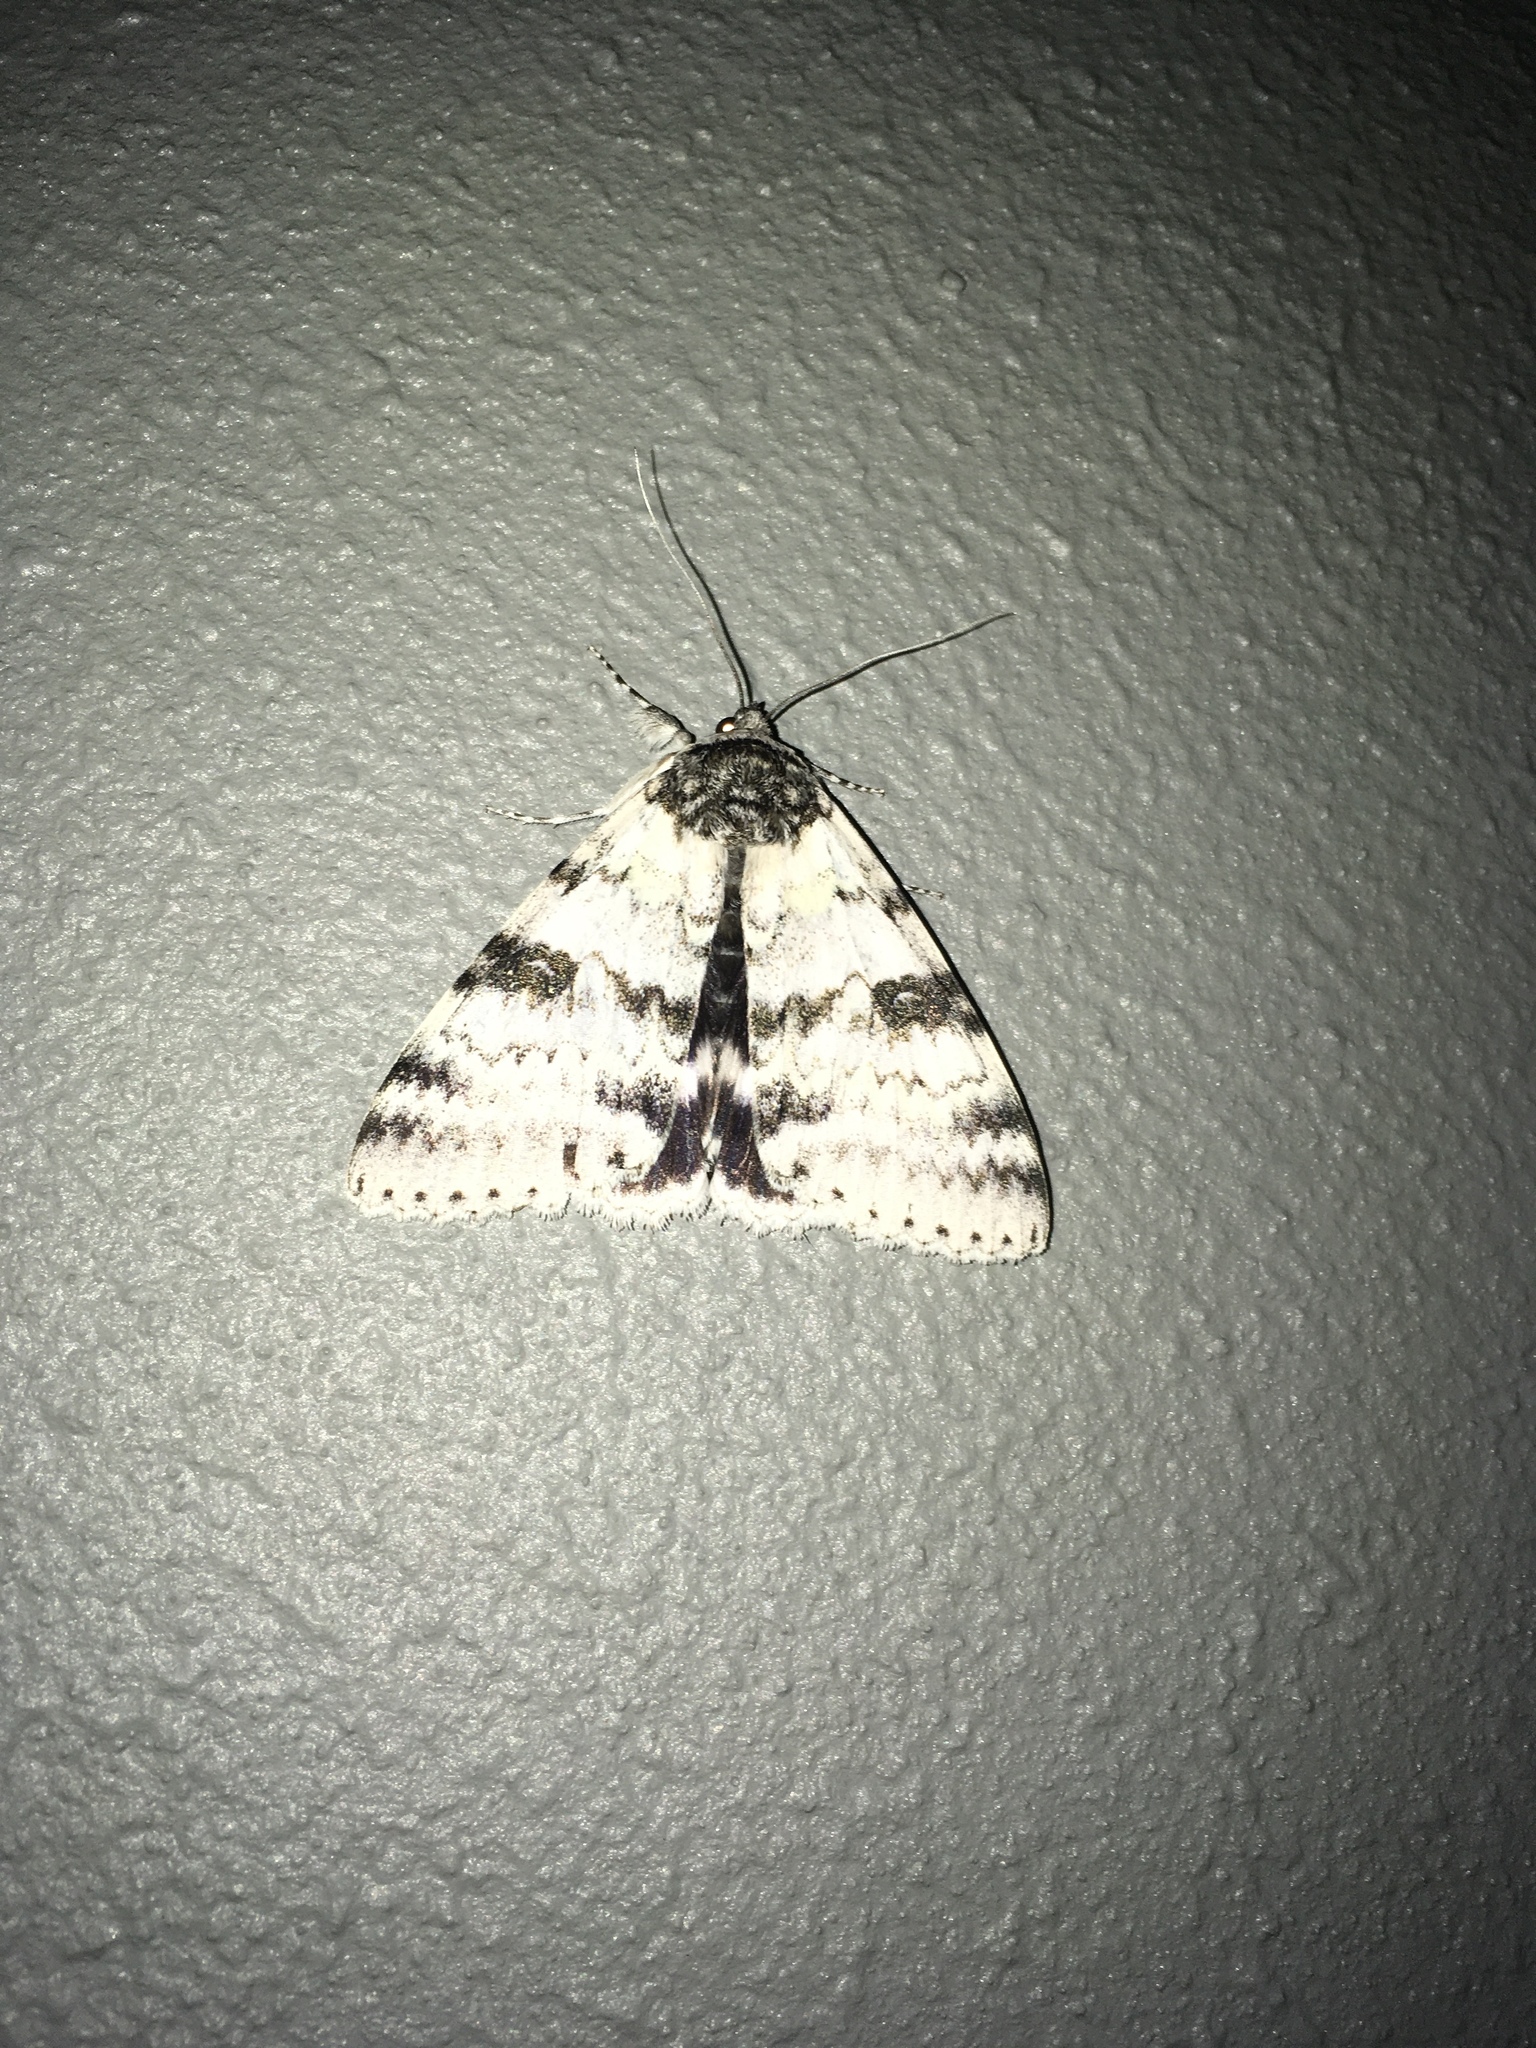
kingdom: Animalia
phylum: Arthropoda
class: Insecta
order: Lepidoptera
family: Erebidae
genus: Catocala
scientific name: Catocala relicta
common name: White underwing
